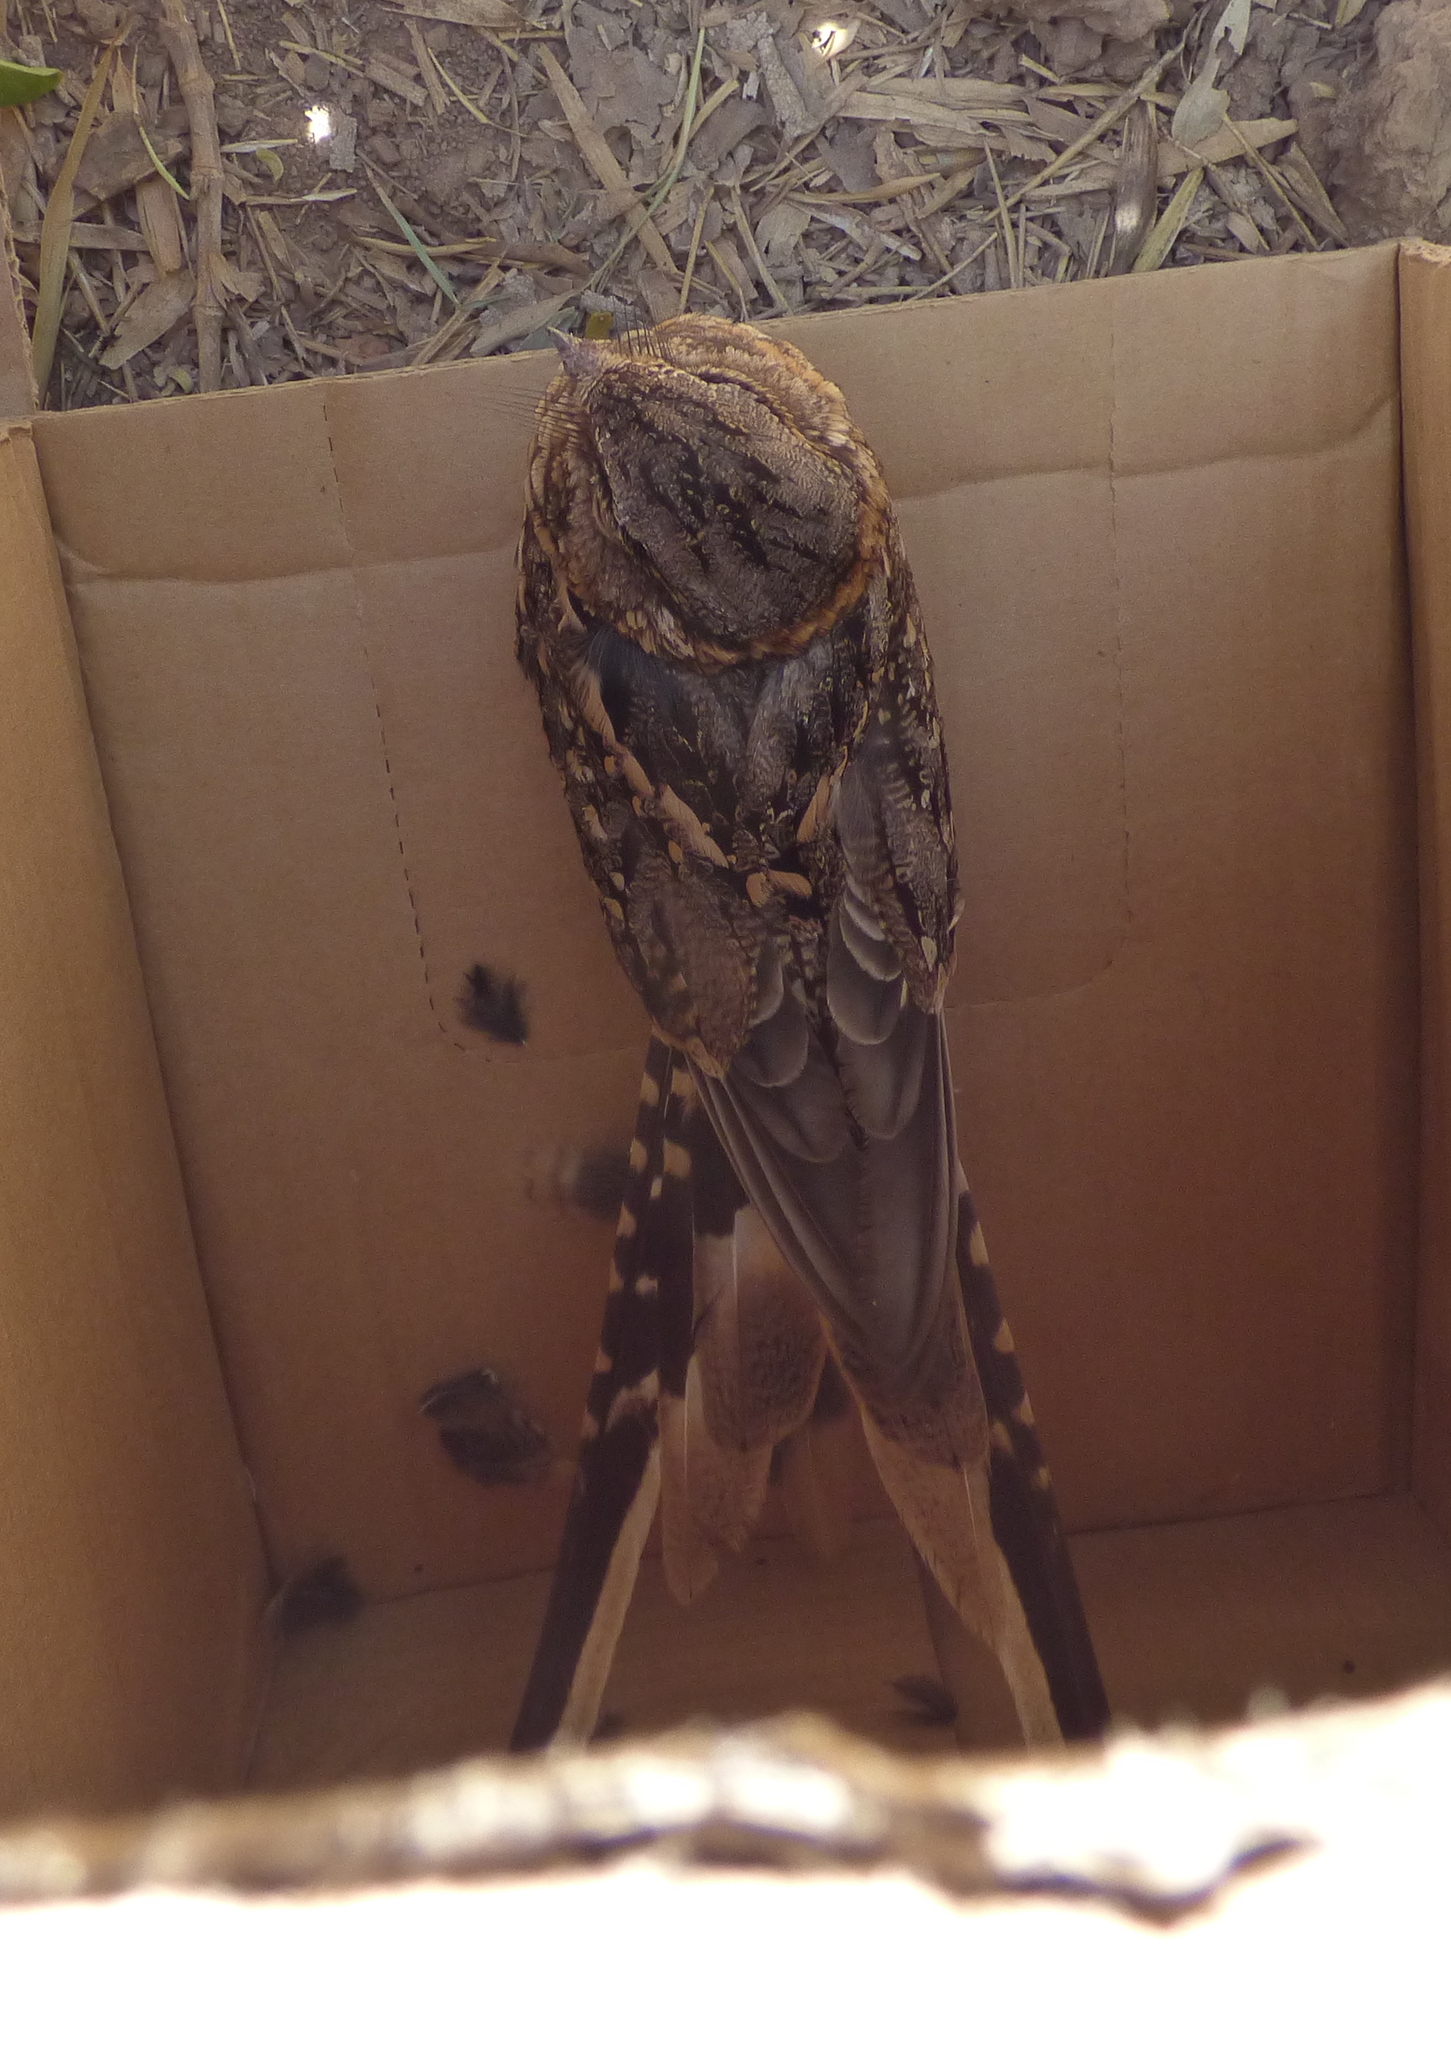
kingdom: Animalia
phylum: Chordata
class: Aves
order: Caprimulgiformes
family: Caprimulgidae
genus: Hydropsalis
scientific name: Hydropsalis torquata
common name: Scissor-tailed nightjar
